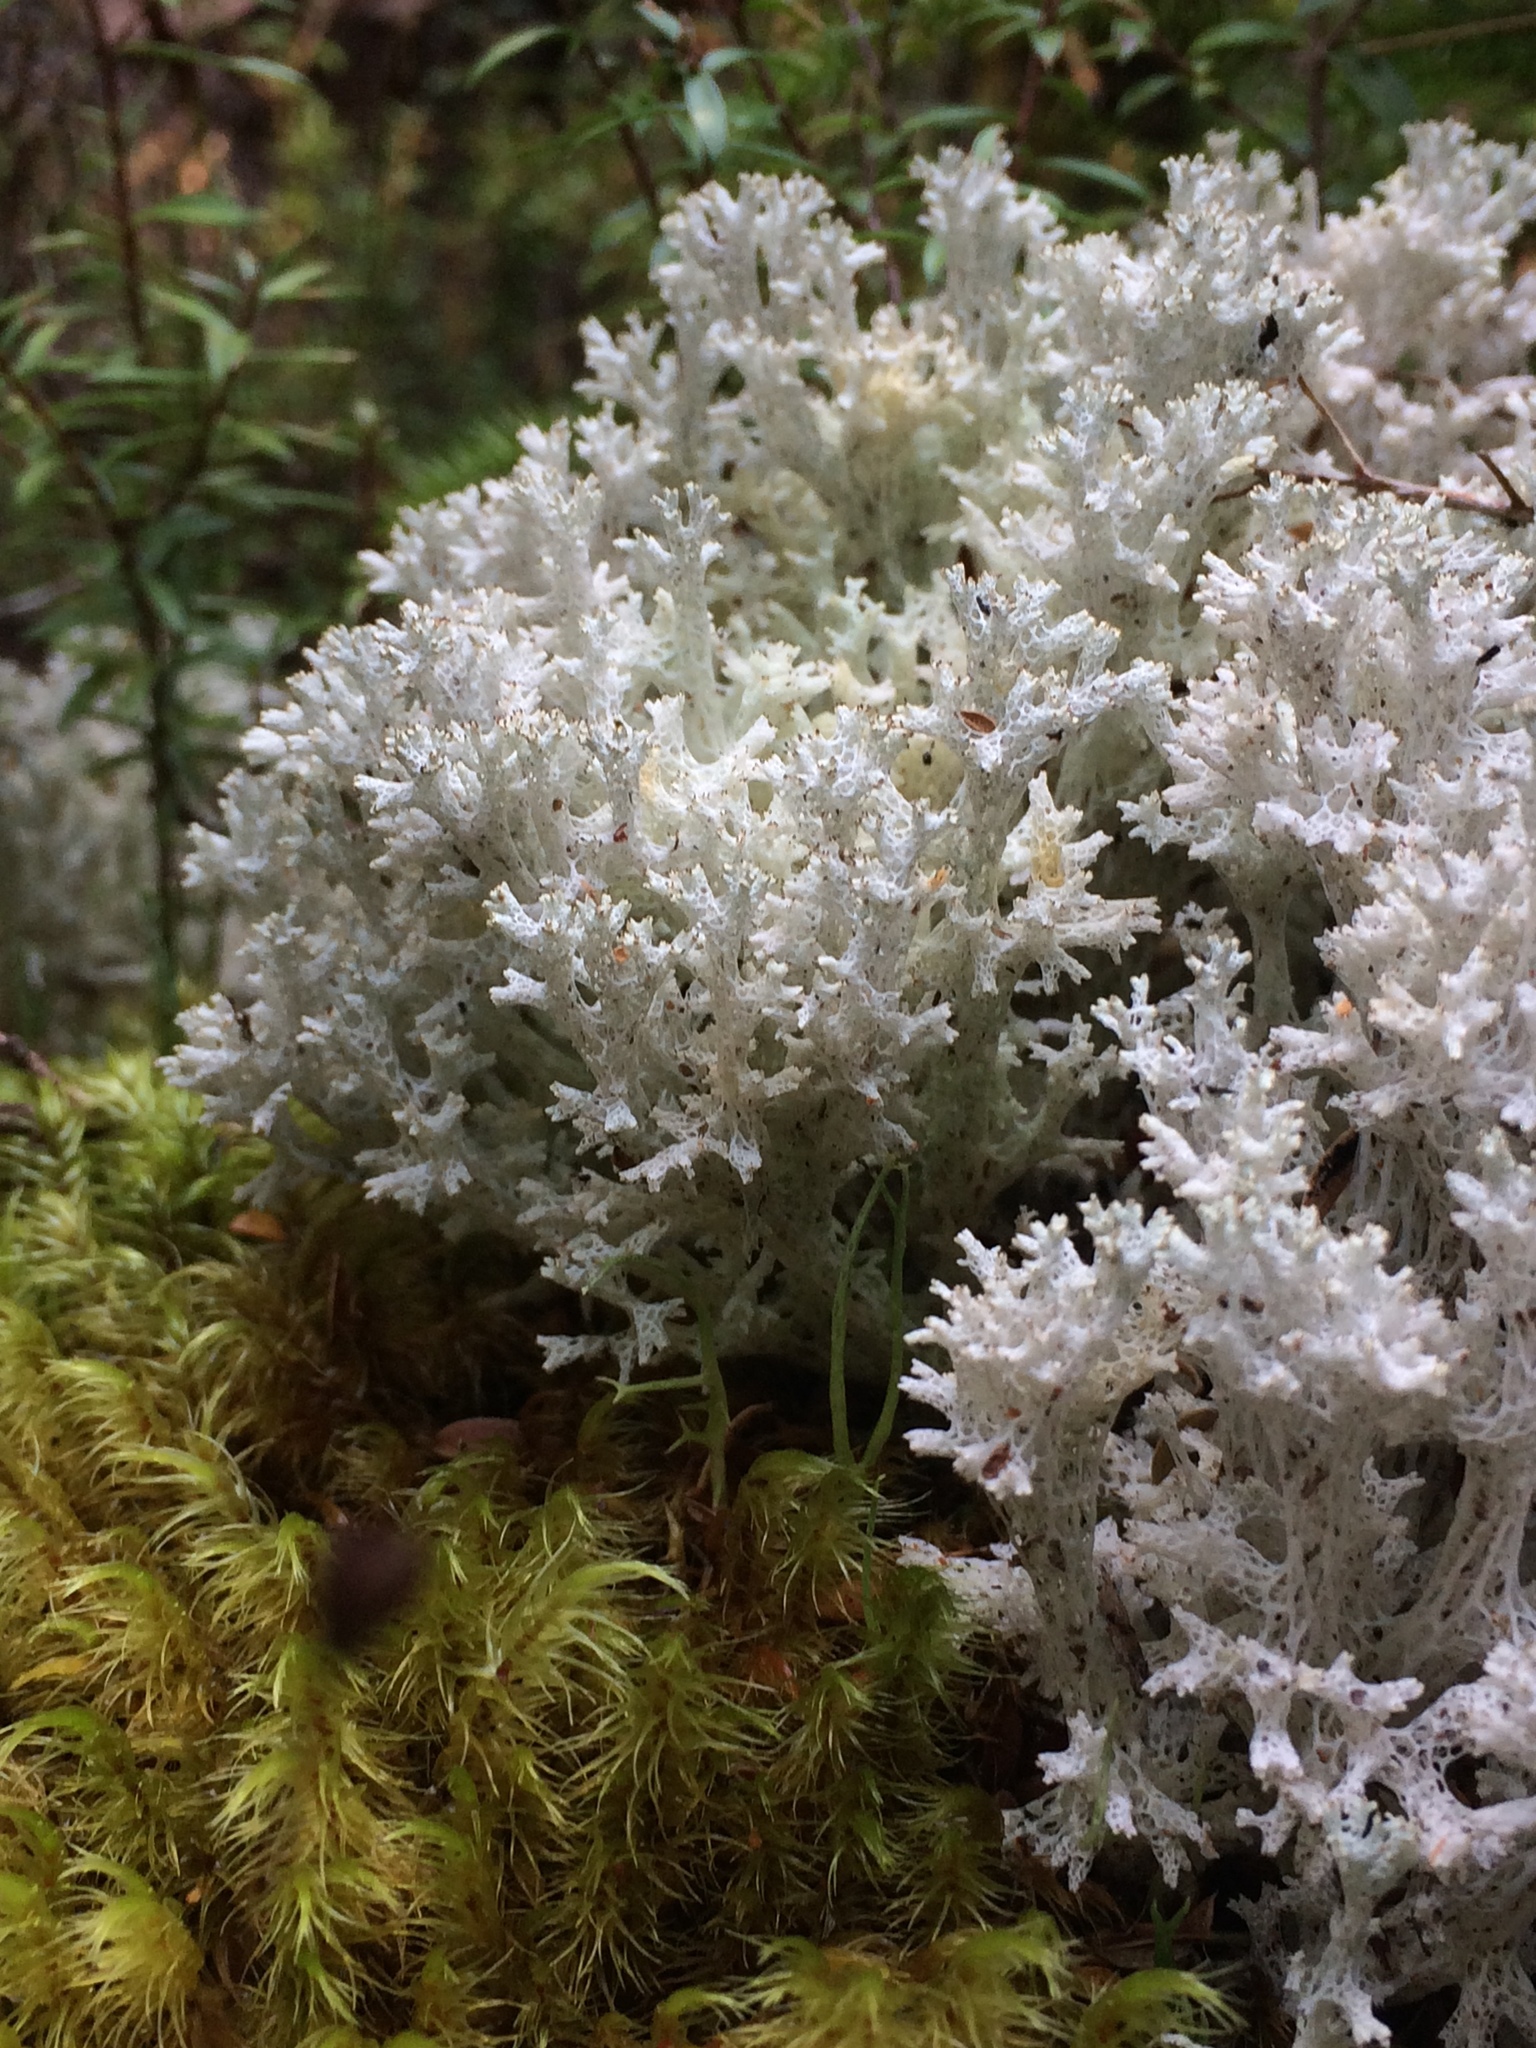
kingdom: Fungi
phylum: Ascomycota
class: Lecanoromycetes
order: Lecanorales
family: Cladoniaceae
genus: Pulchrocladia
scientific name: Pulchrocladia retipora
